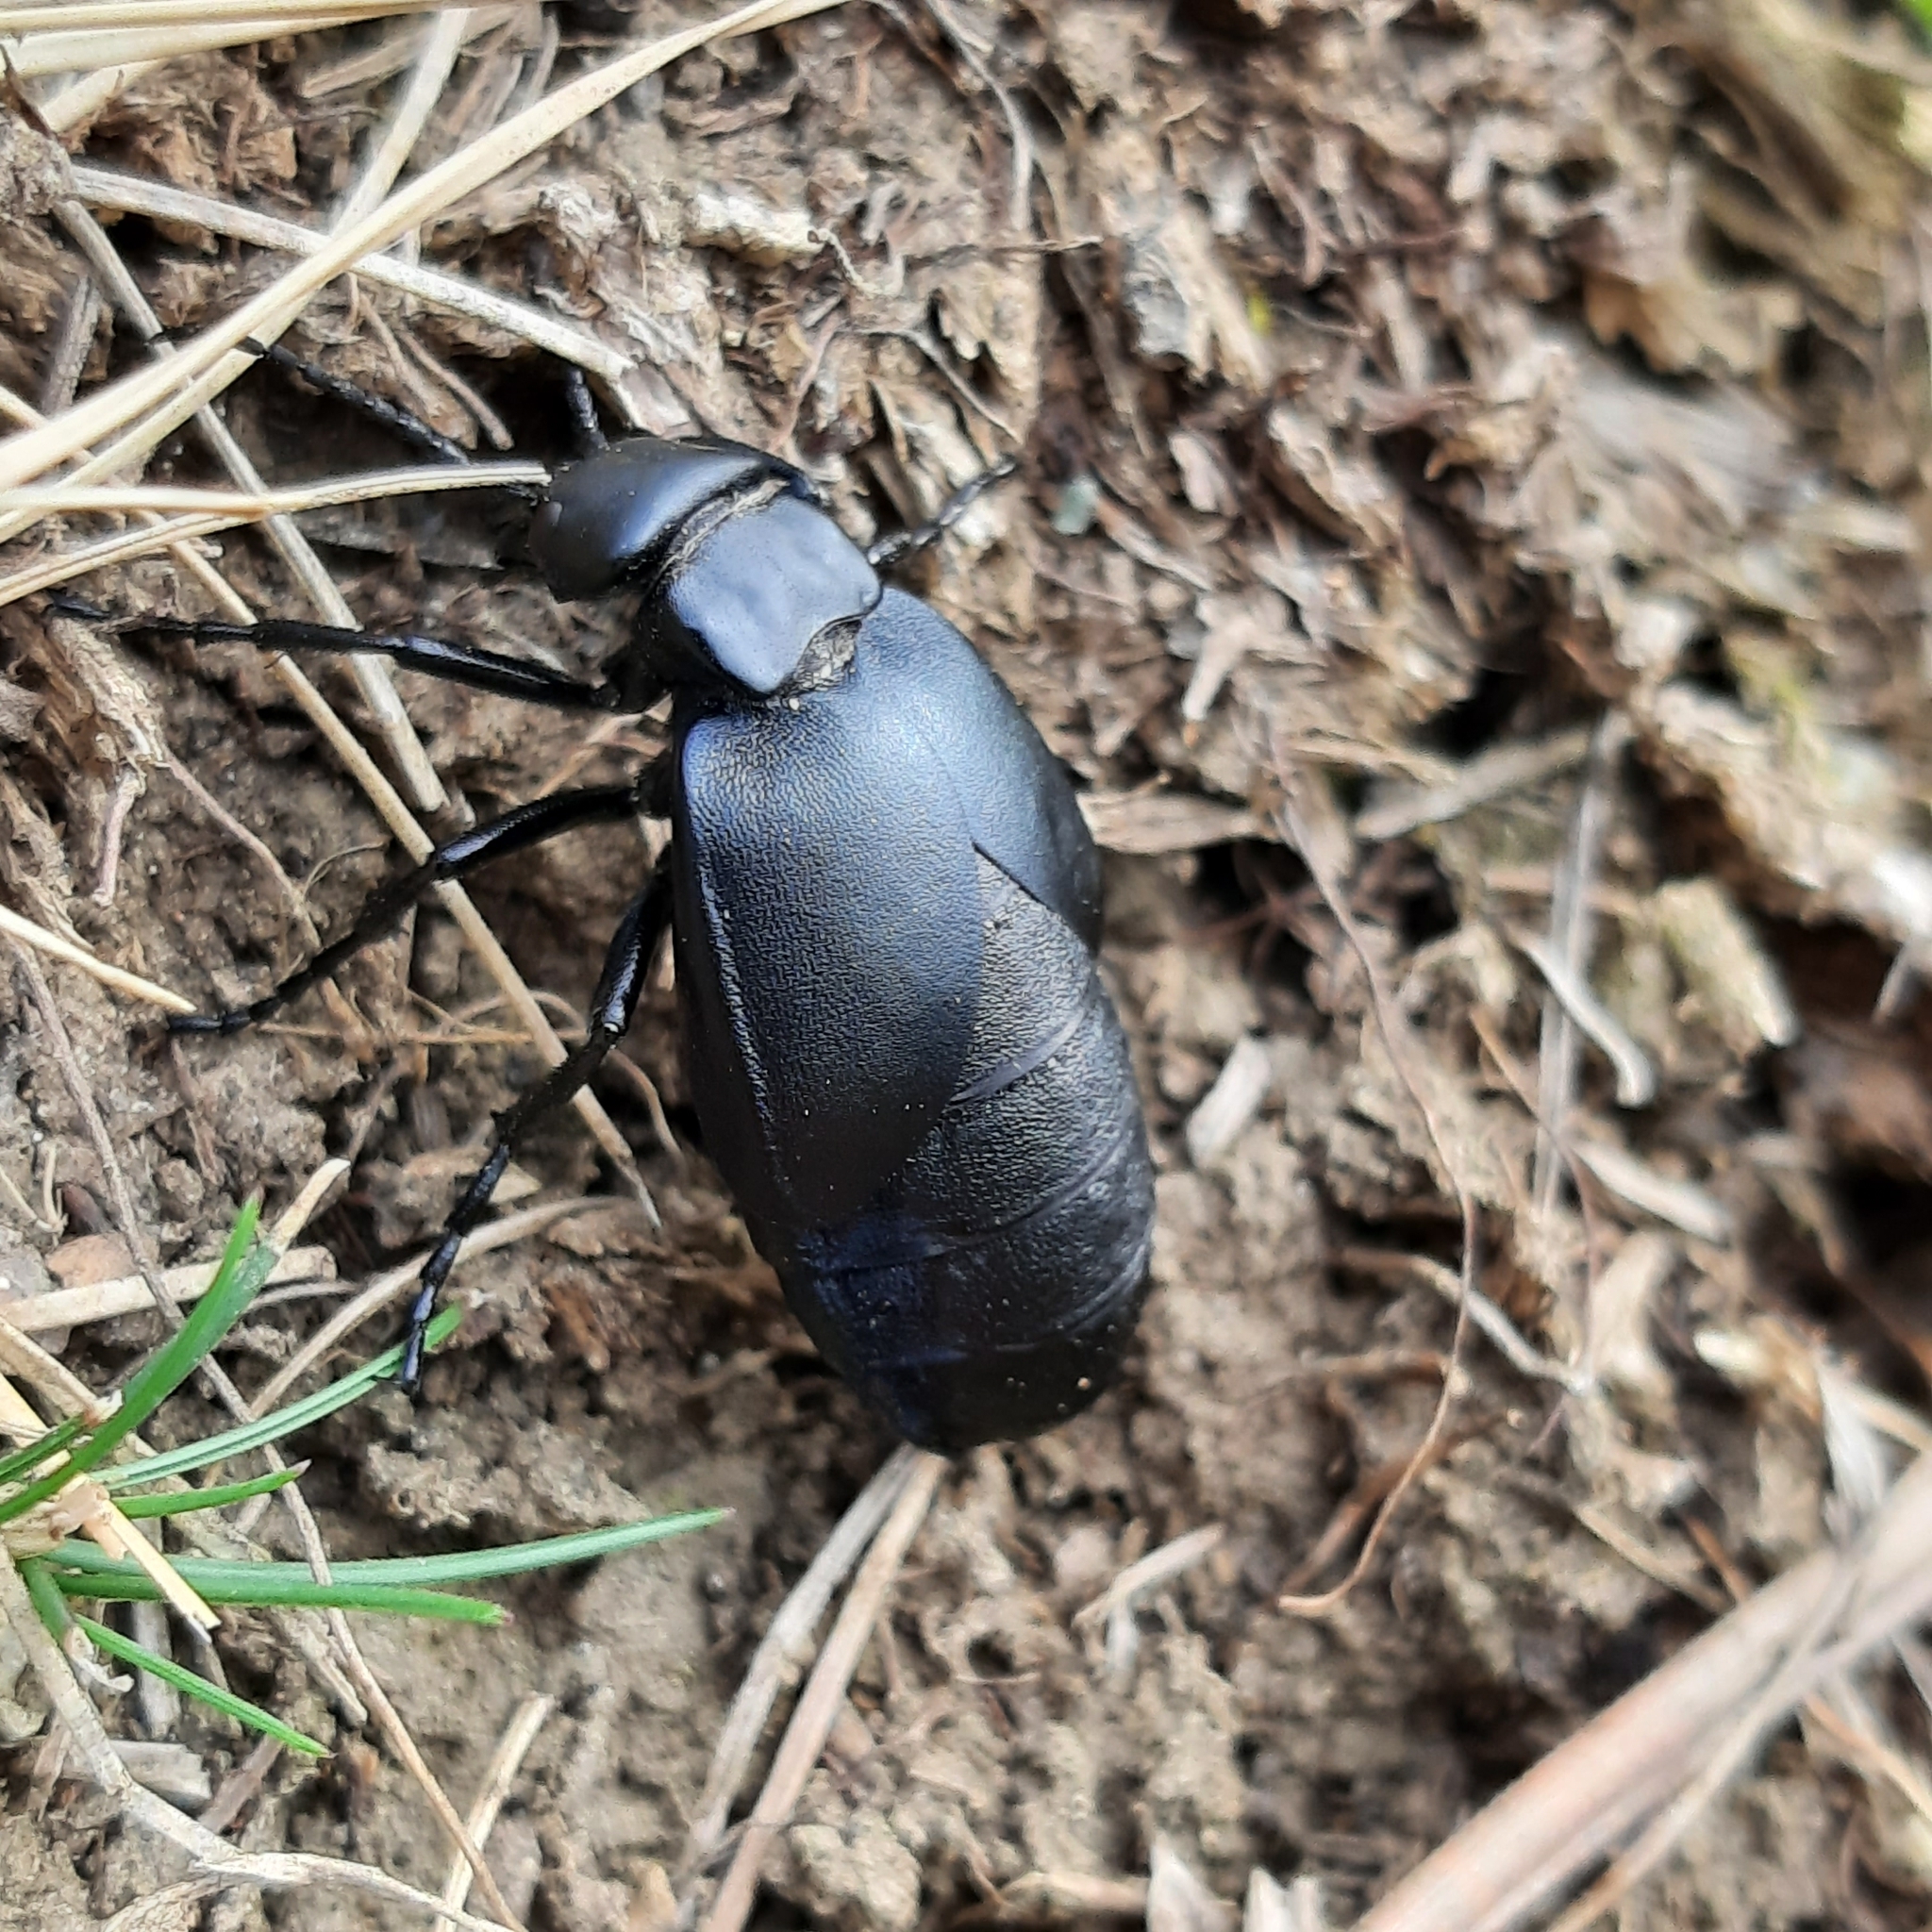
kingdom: Animalia
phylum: Arthropoda
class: Insecta
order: Coleoptera
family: Meloidae
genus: Meloe
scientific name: Meloe uralensis
